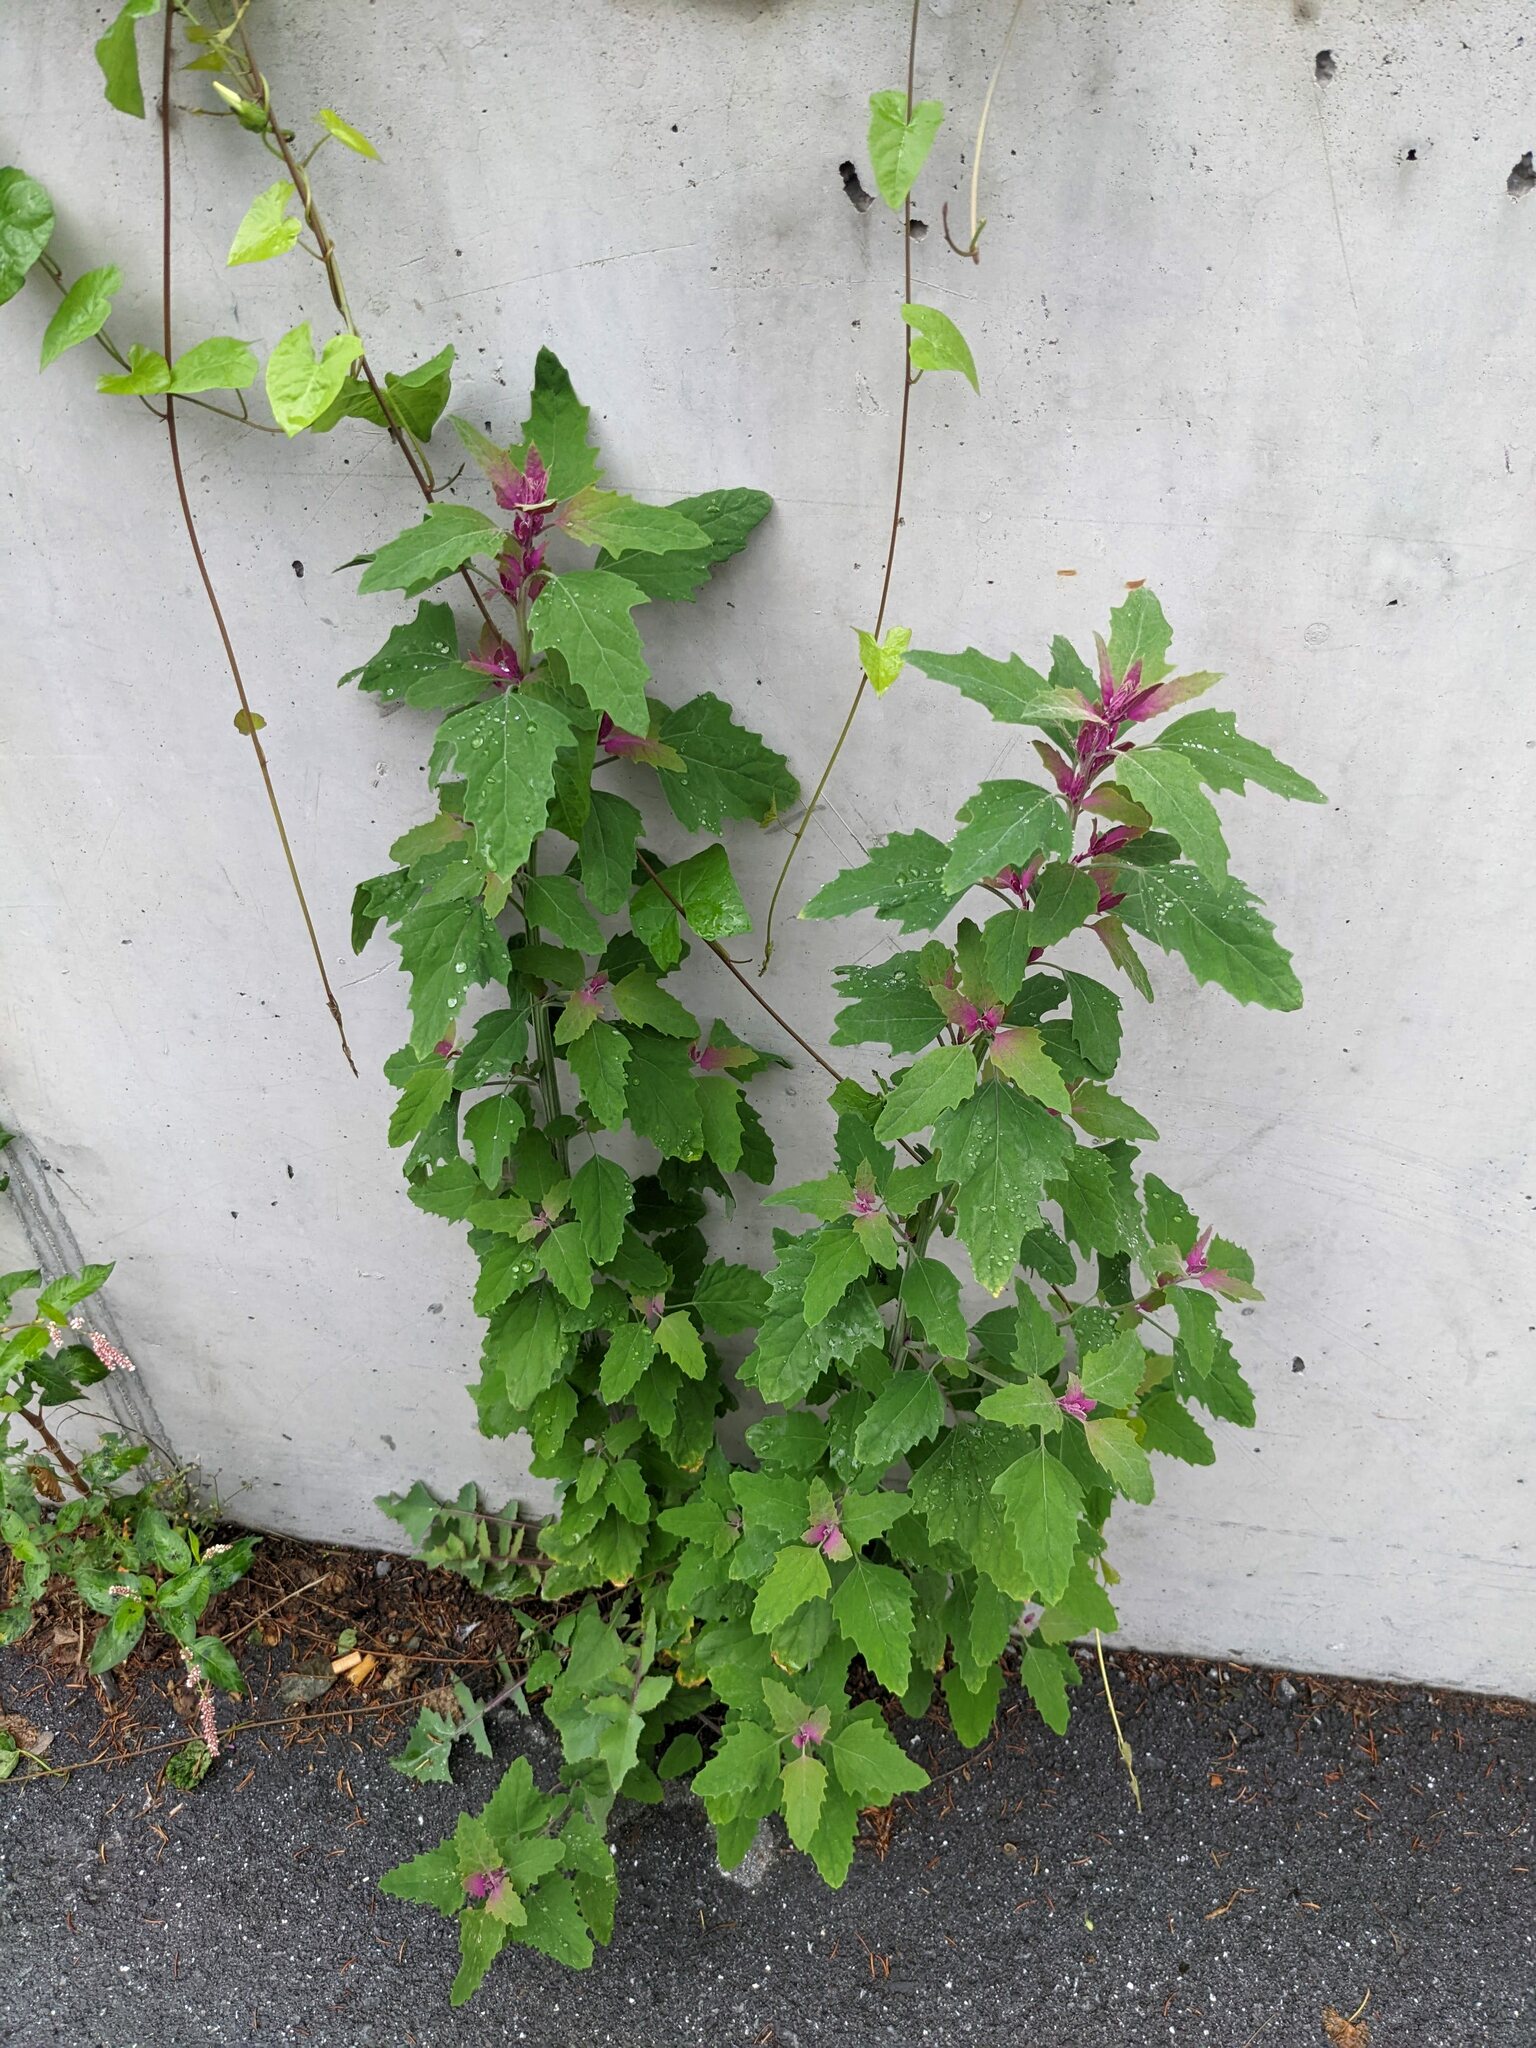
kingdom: Plantae
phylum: Tracheophyta
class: Magnoliopsida
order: Caryophyllales
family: Amaranthaceae
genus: Chenopodium
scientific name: Chenopodium giganteum
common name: Magentaspreen
